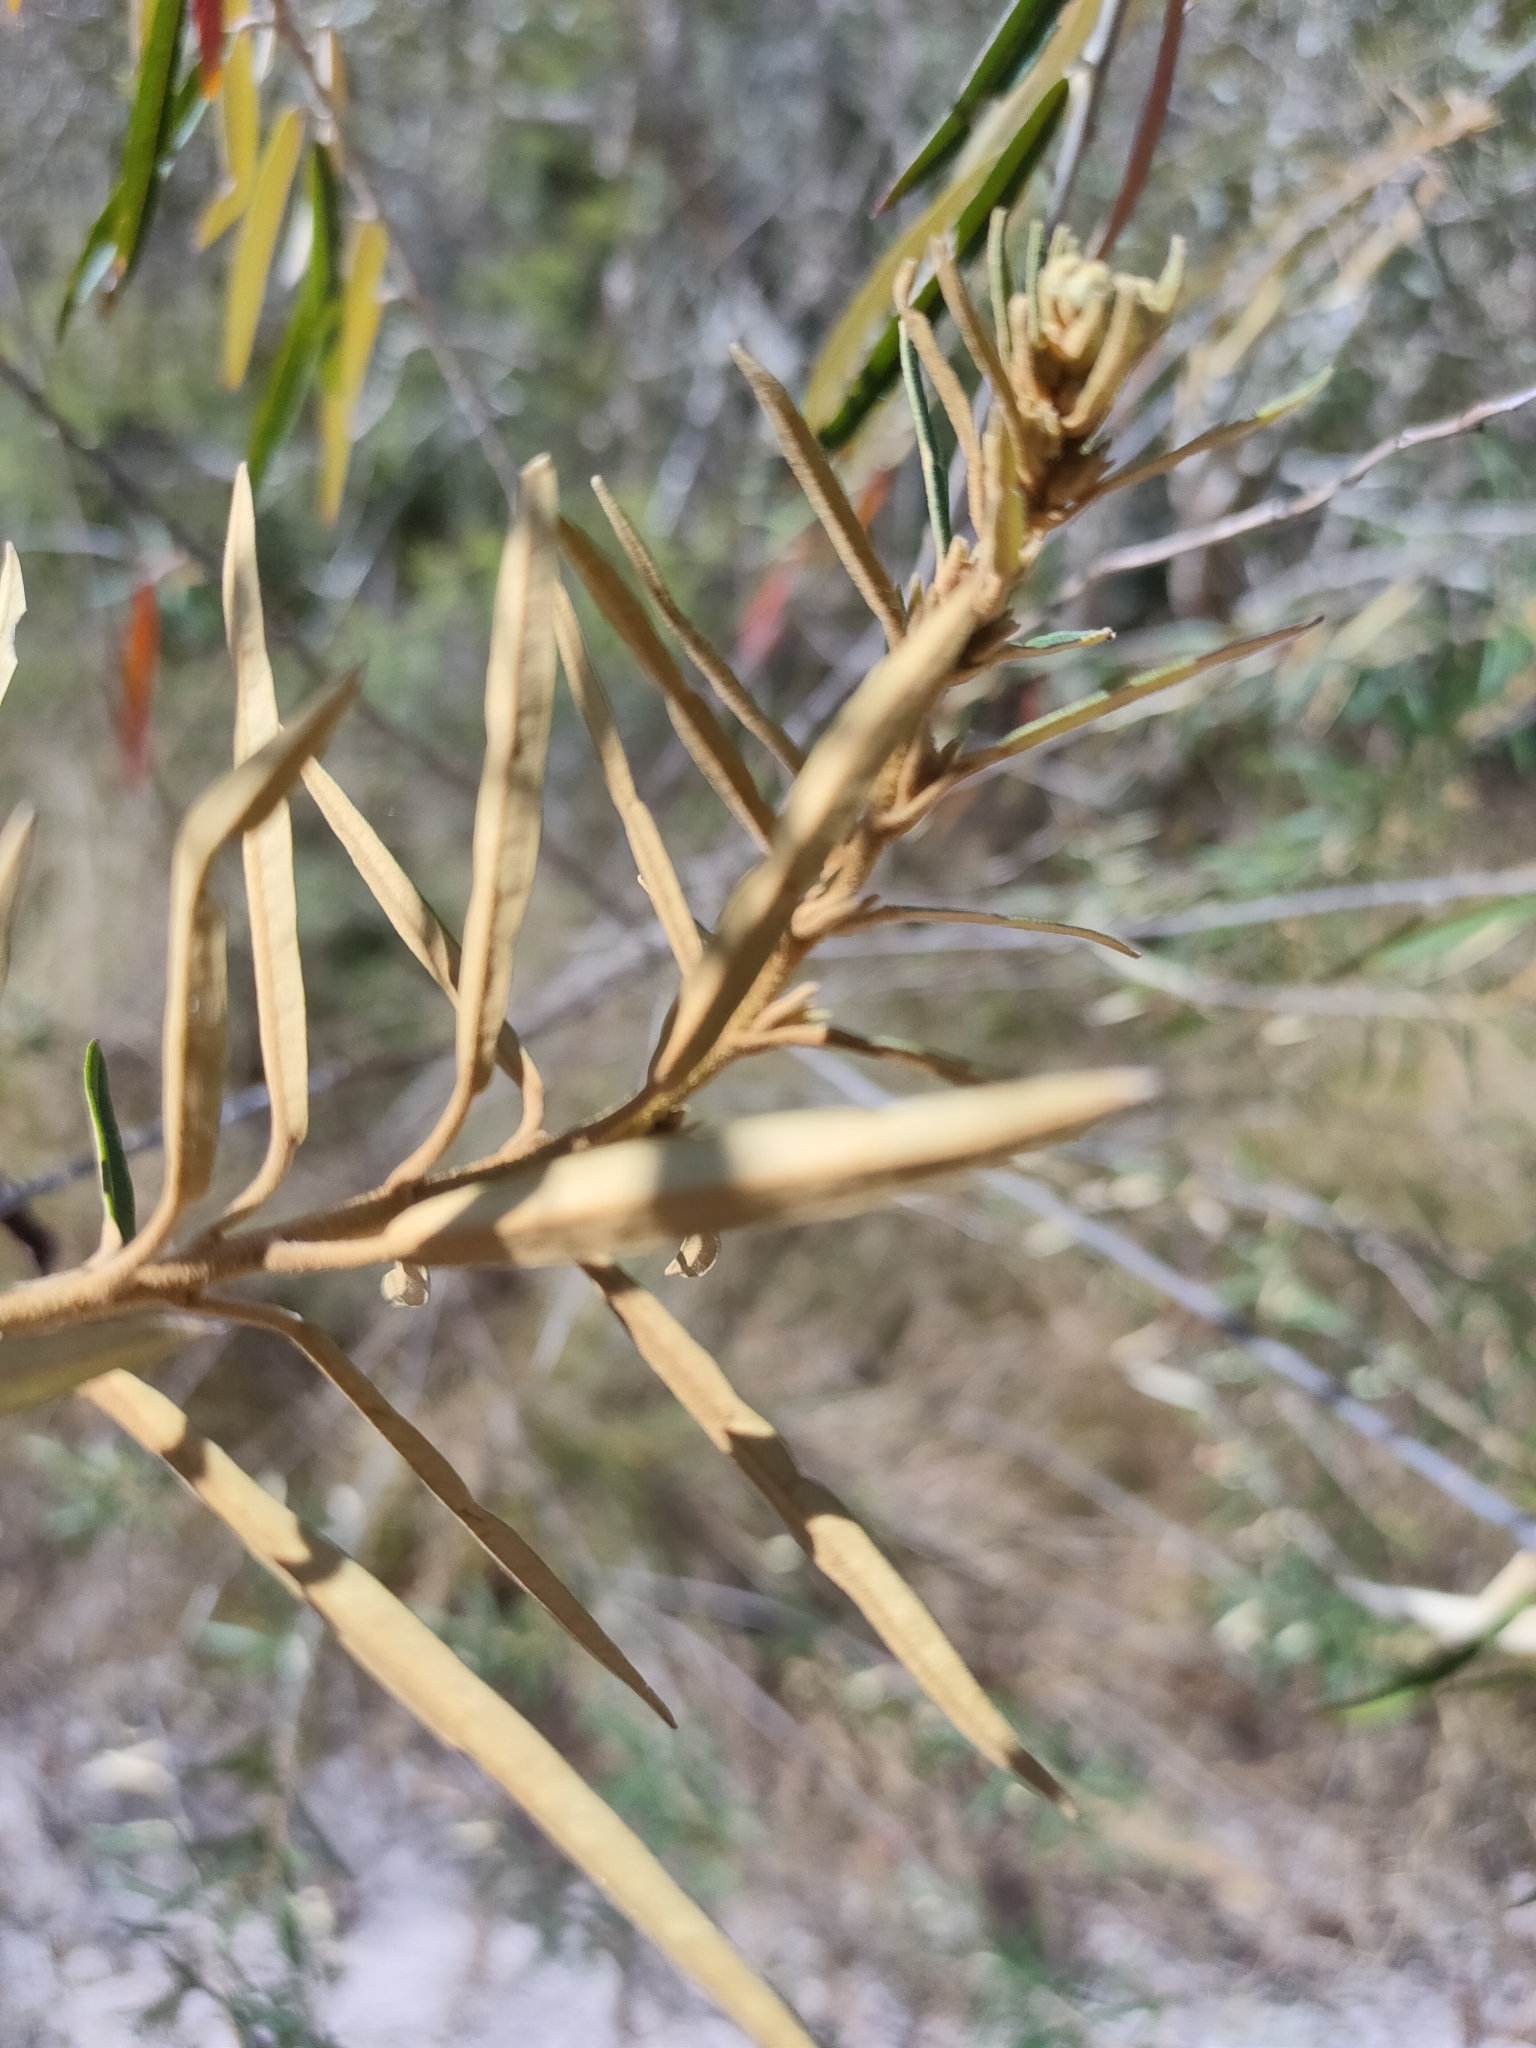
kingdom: Plantae
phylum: Tracheophyta
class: Magnoliopsida
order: Apiales
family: Araliaceae
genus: Astrotricha
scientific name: Astrotricha longifolia
